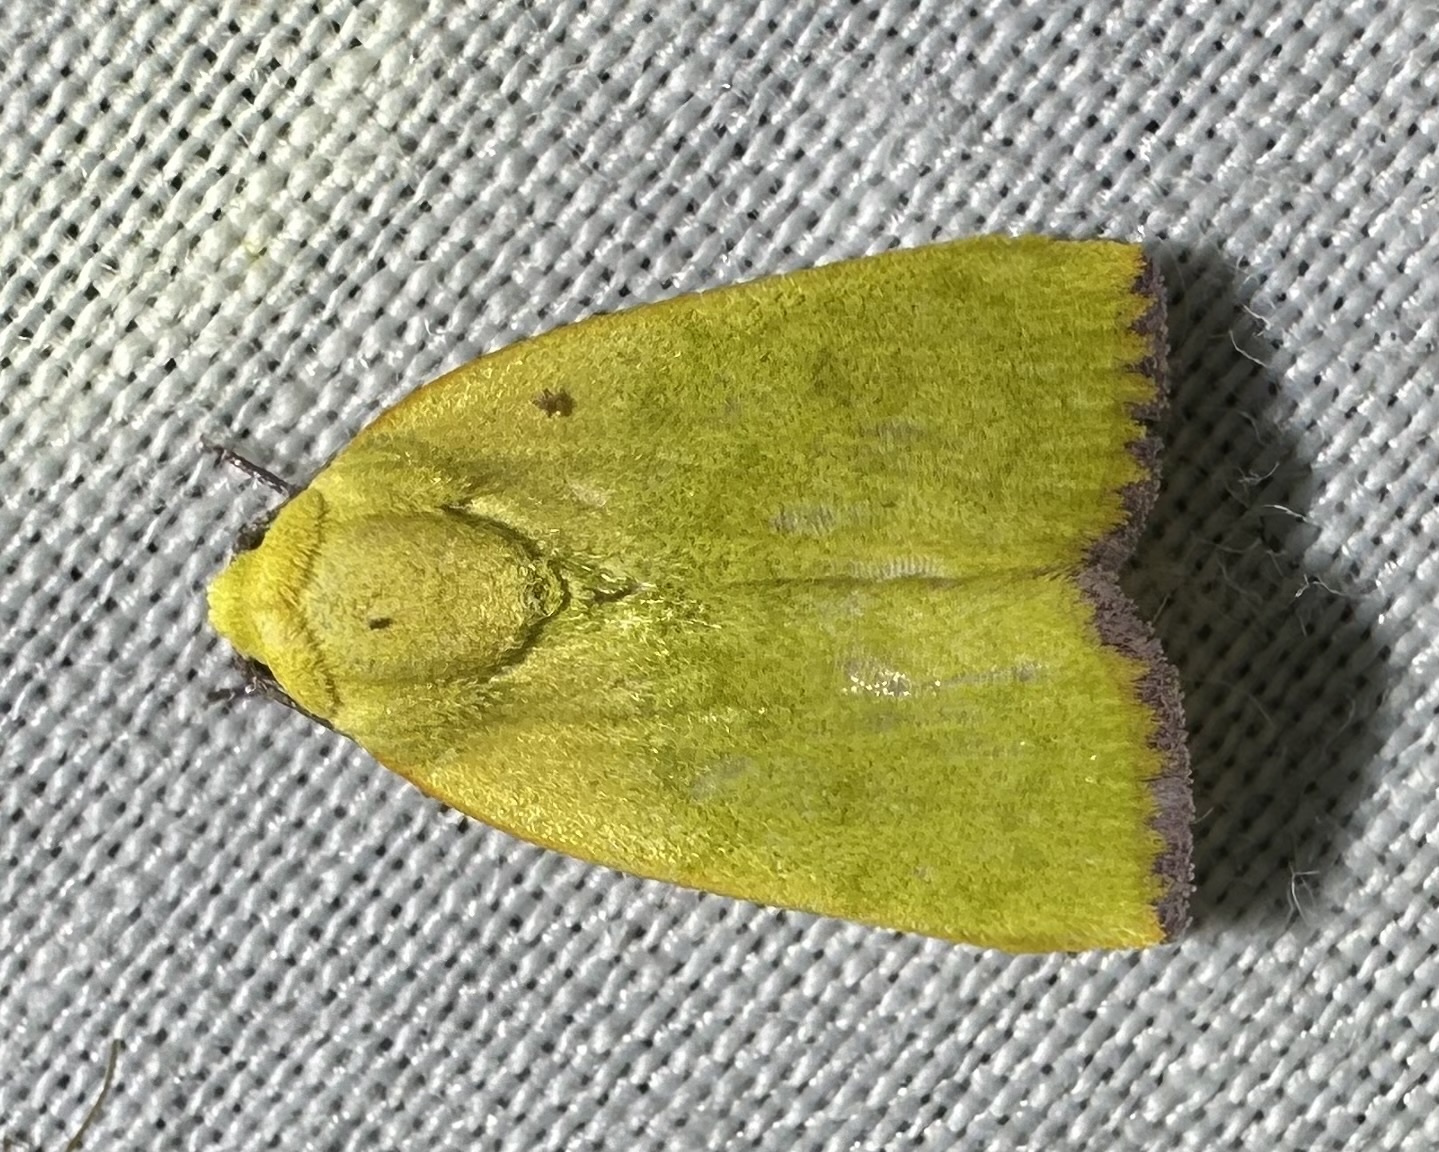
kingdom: Animalia
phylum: Arthropoda
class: Insecta
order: Lepidoptera
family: Nolidae
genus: Earias
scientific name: Earias cupreoviridis
